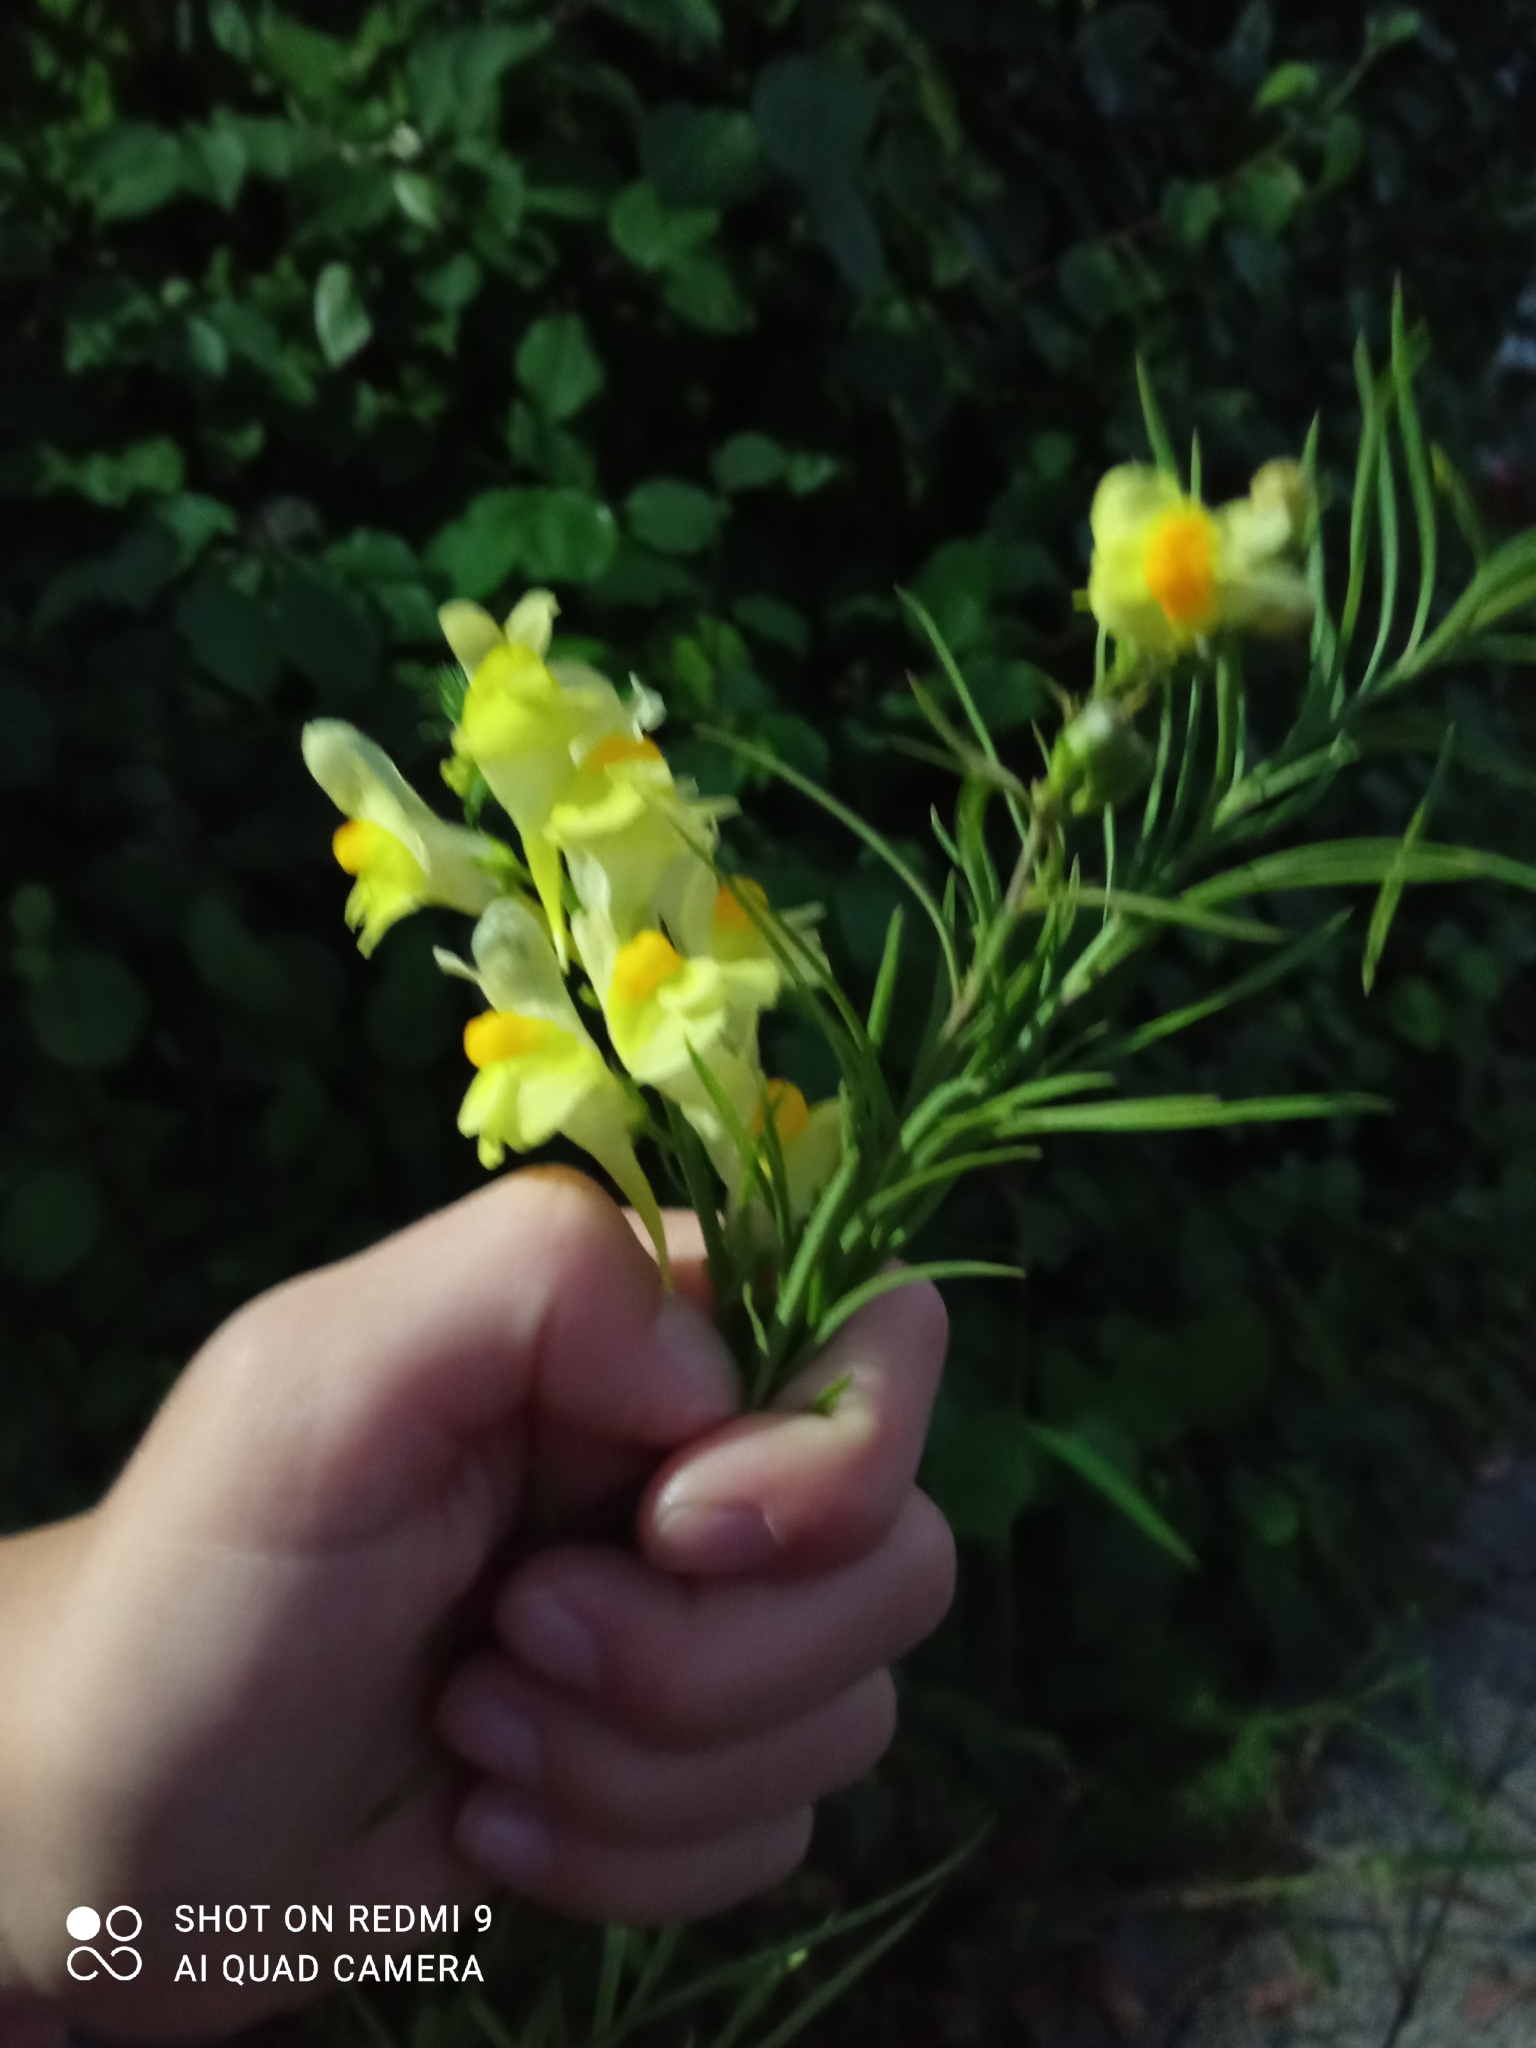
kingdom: Plantae
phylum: Tracheophyta
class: Magnoliopsida
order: Lamiales
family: Plantaginaceae
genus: Linaria
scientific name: Linaria vulgaris
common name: Butter and eggs
